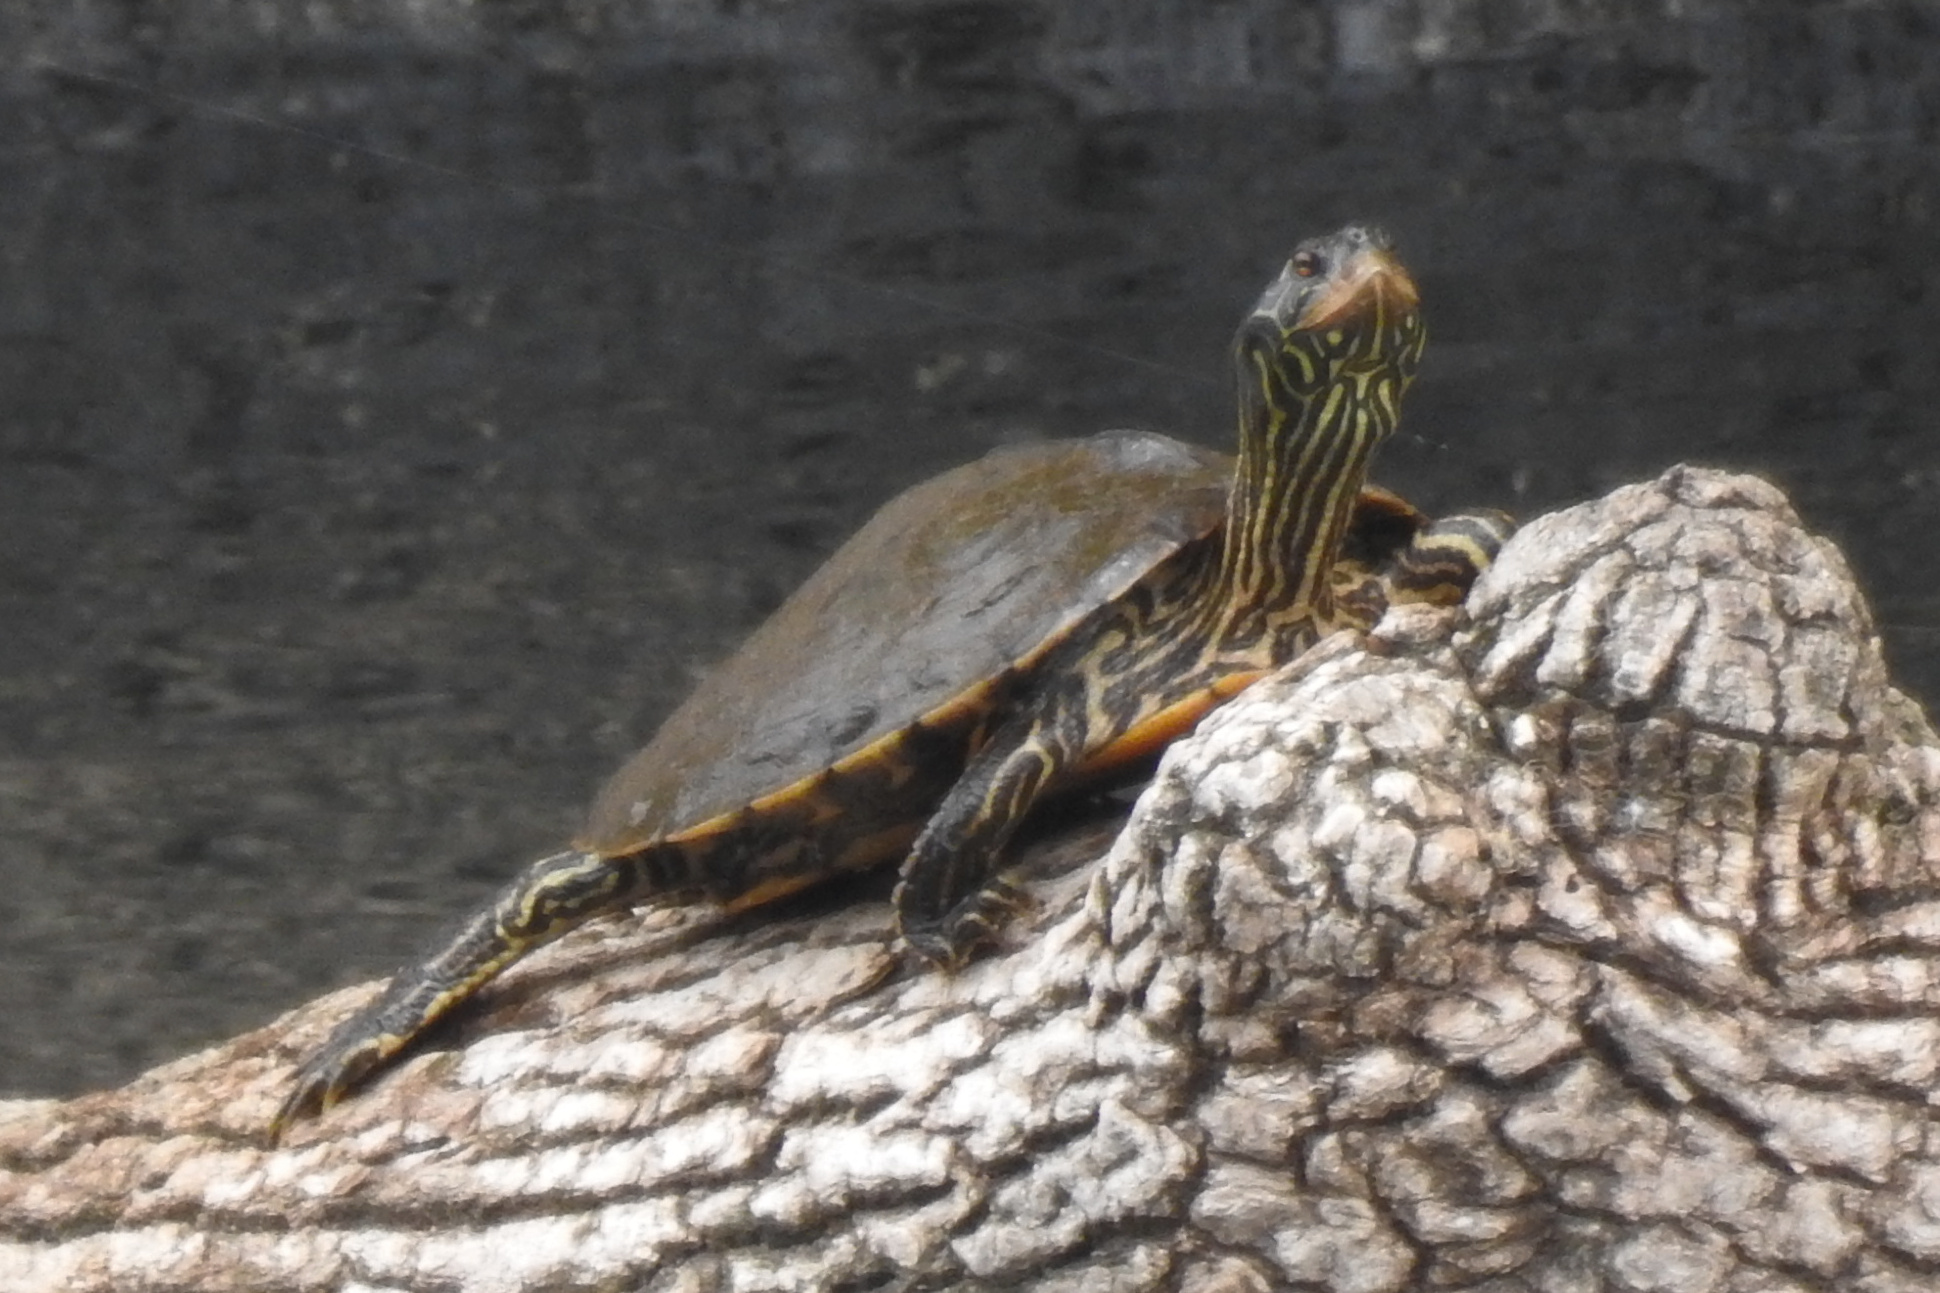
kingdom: Animalia
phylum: Chordata
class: Testudines
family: Emydidae
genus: Graptemys
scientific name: Graptemys geographica
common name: Common map turtle
